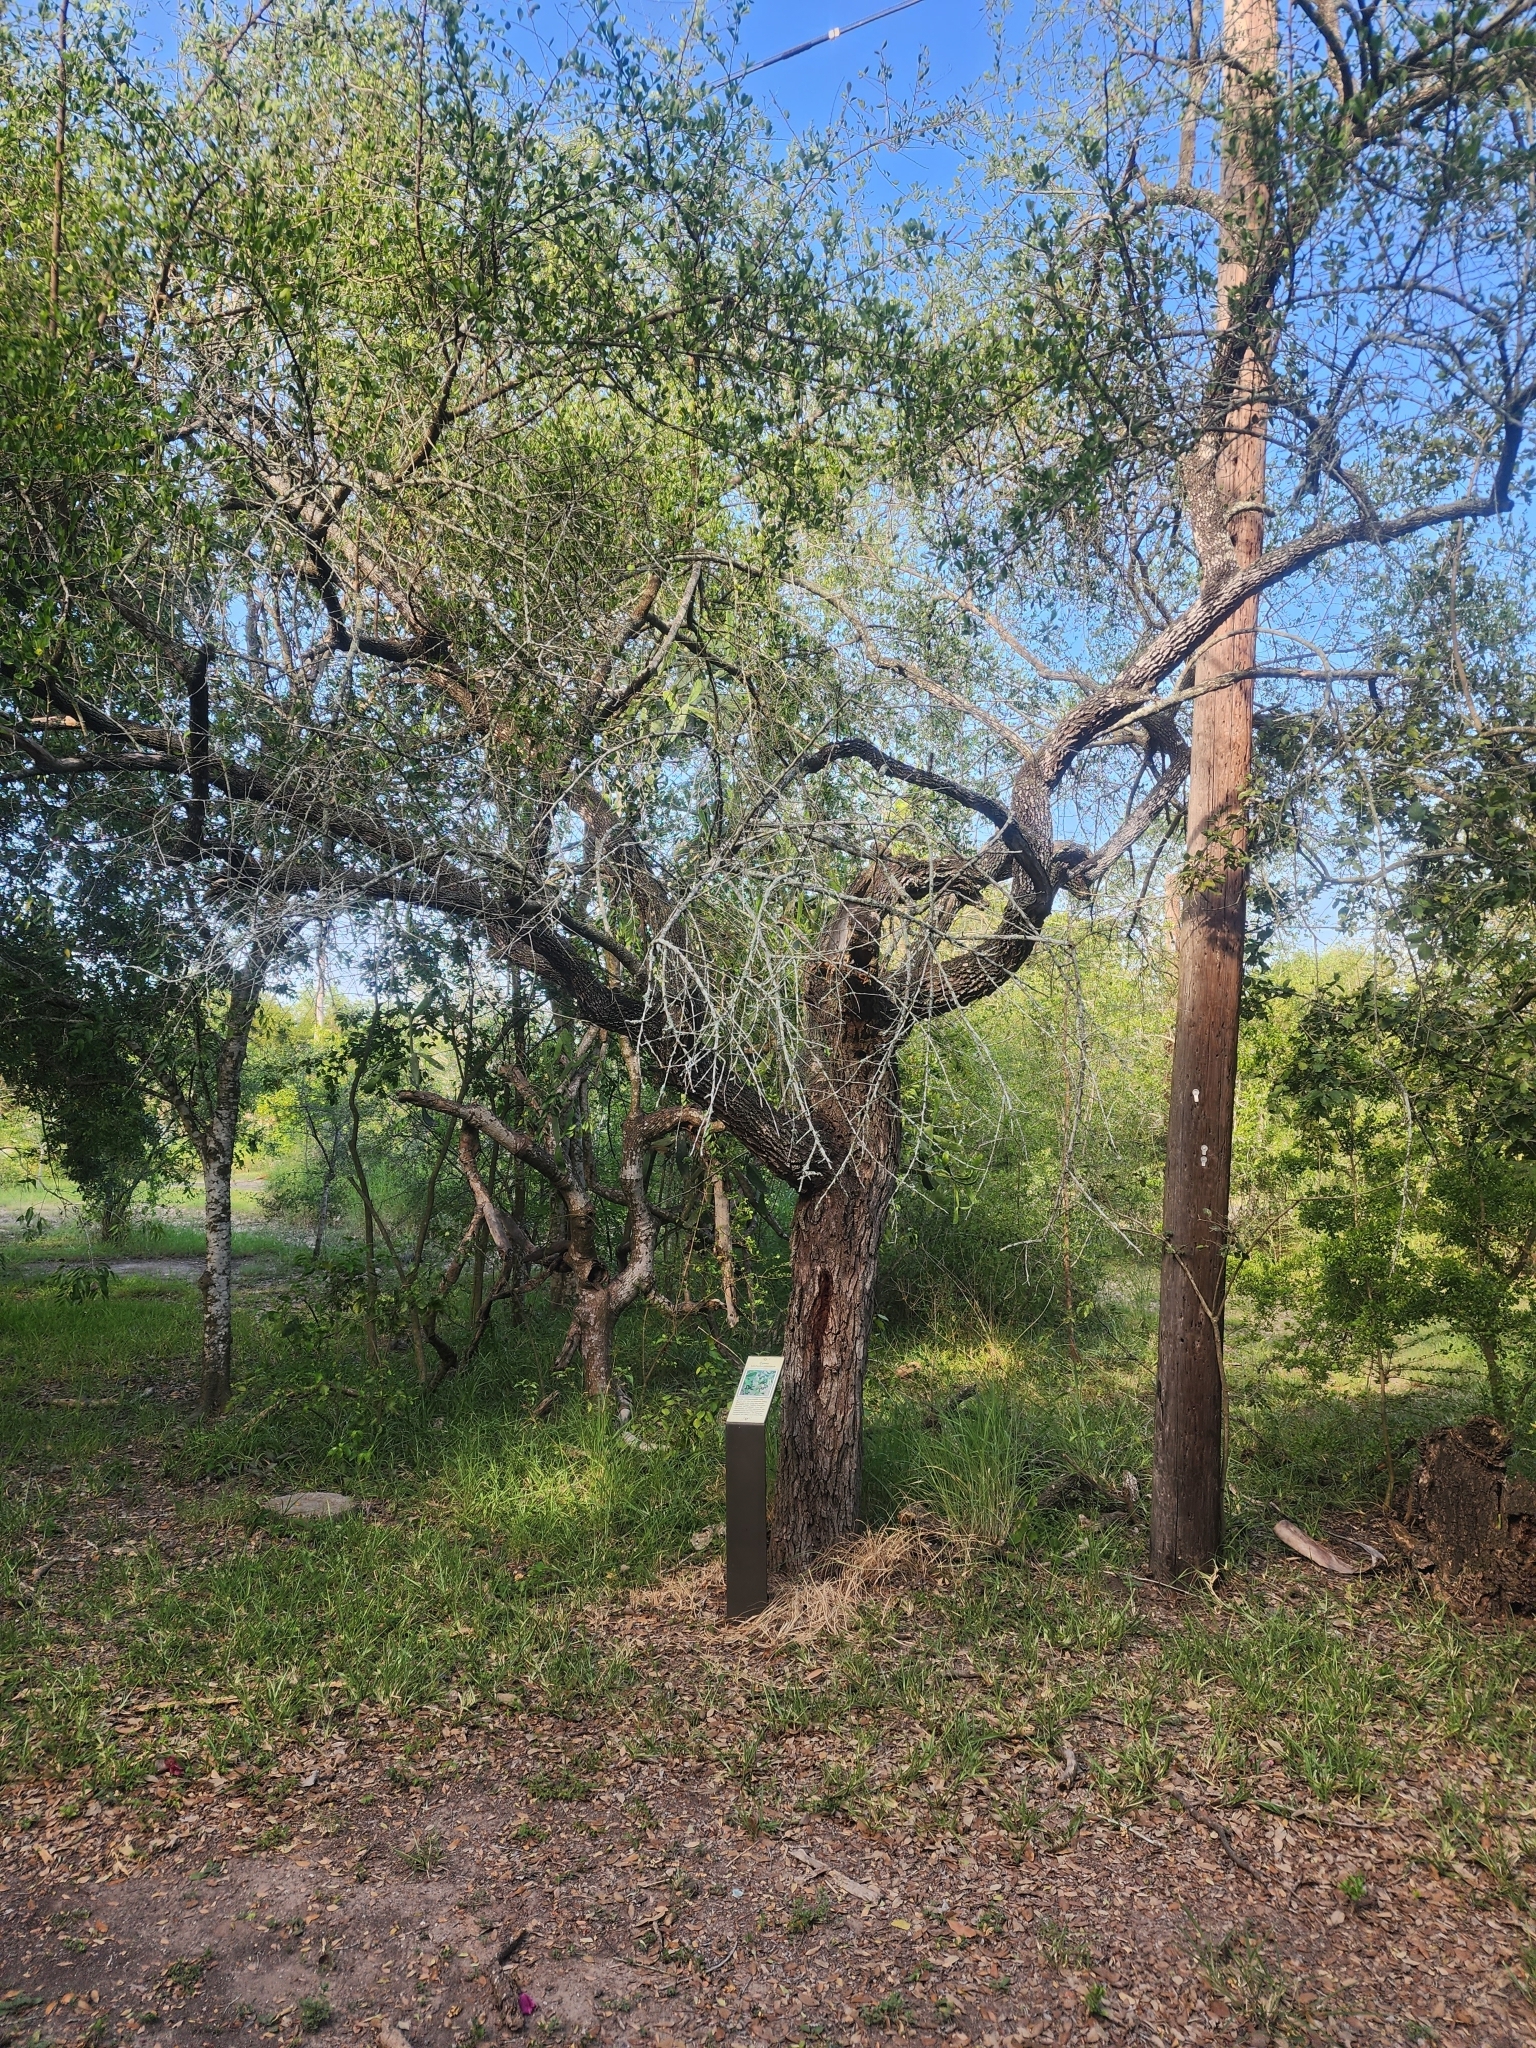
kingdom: Plantae
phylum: Tracheophyta
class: Magnoliopsida
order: Ericales
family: Sapotaceae
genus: Sideroxylon
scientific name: Sideroxylon celastrinum
